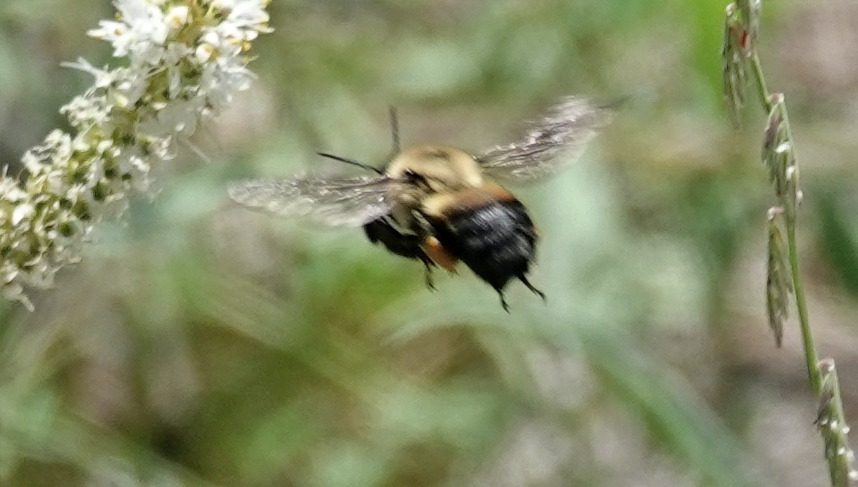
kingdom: Animalia
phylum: Arthropoda
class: Insecta
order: Hymenoptera
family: Apidae
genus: Bombus
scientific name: Bombus griseocollis
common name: Brown-belted bumble bee
